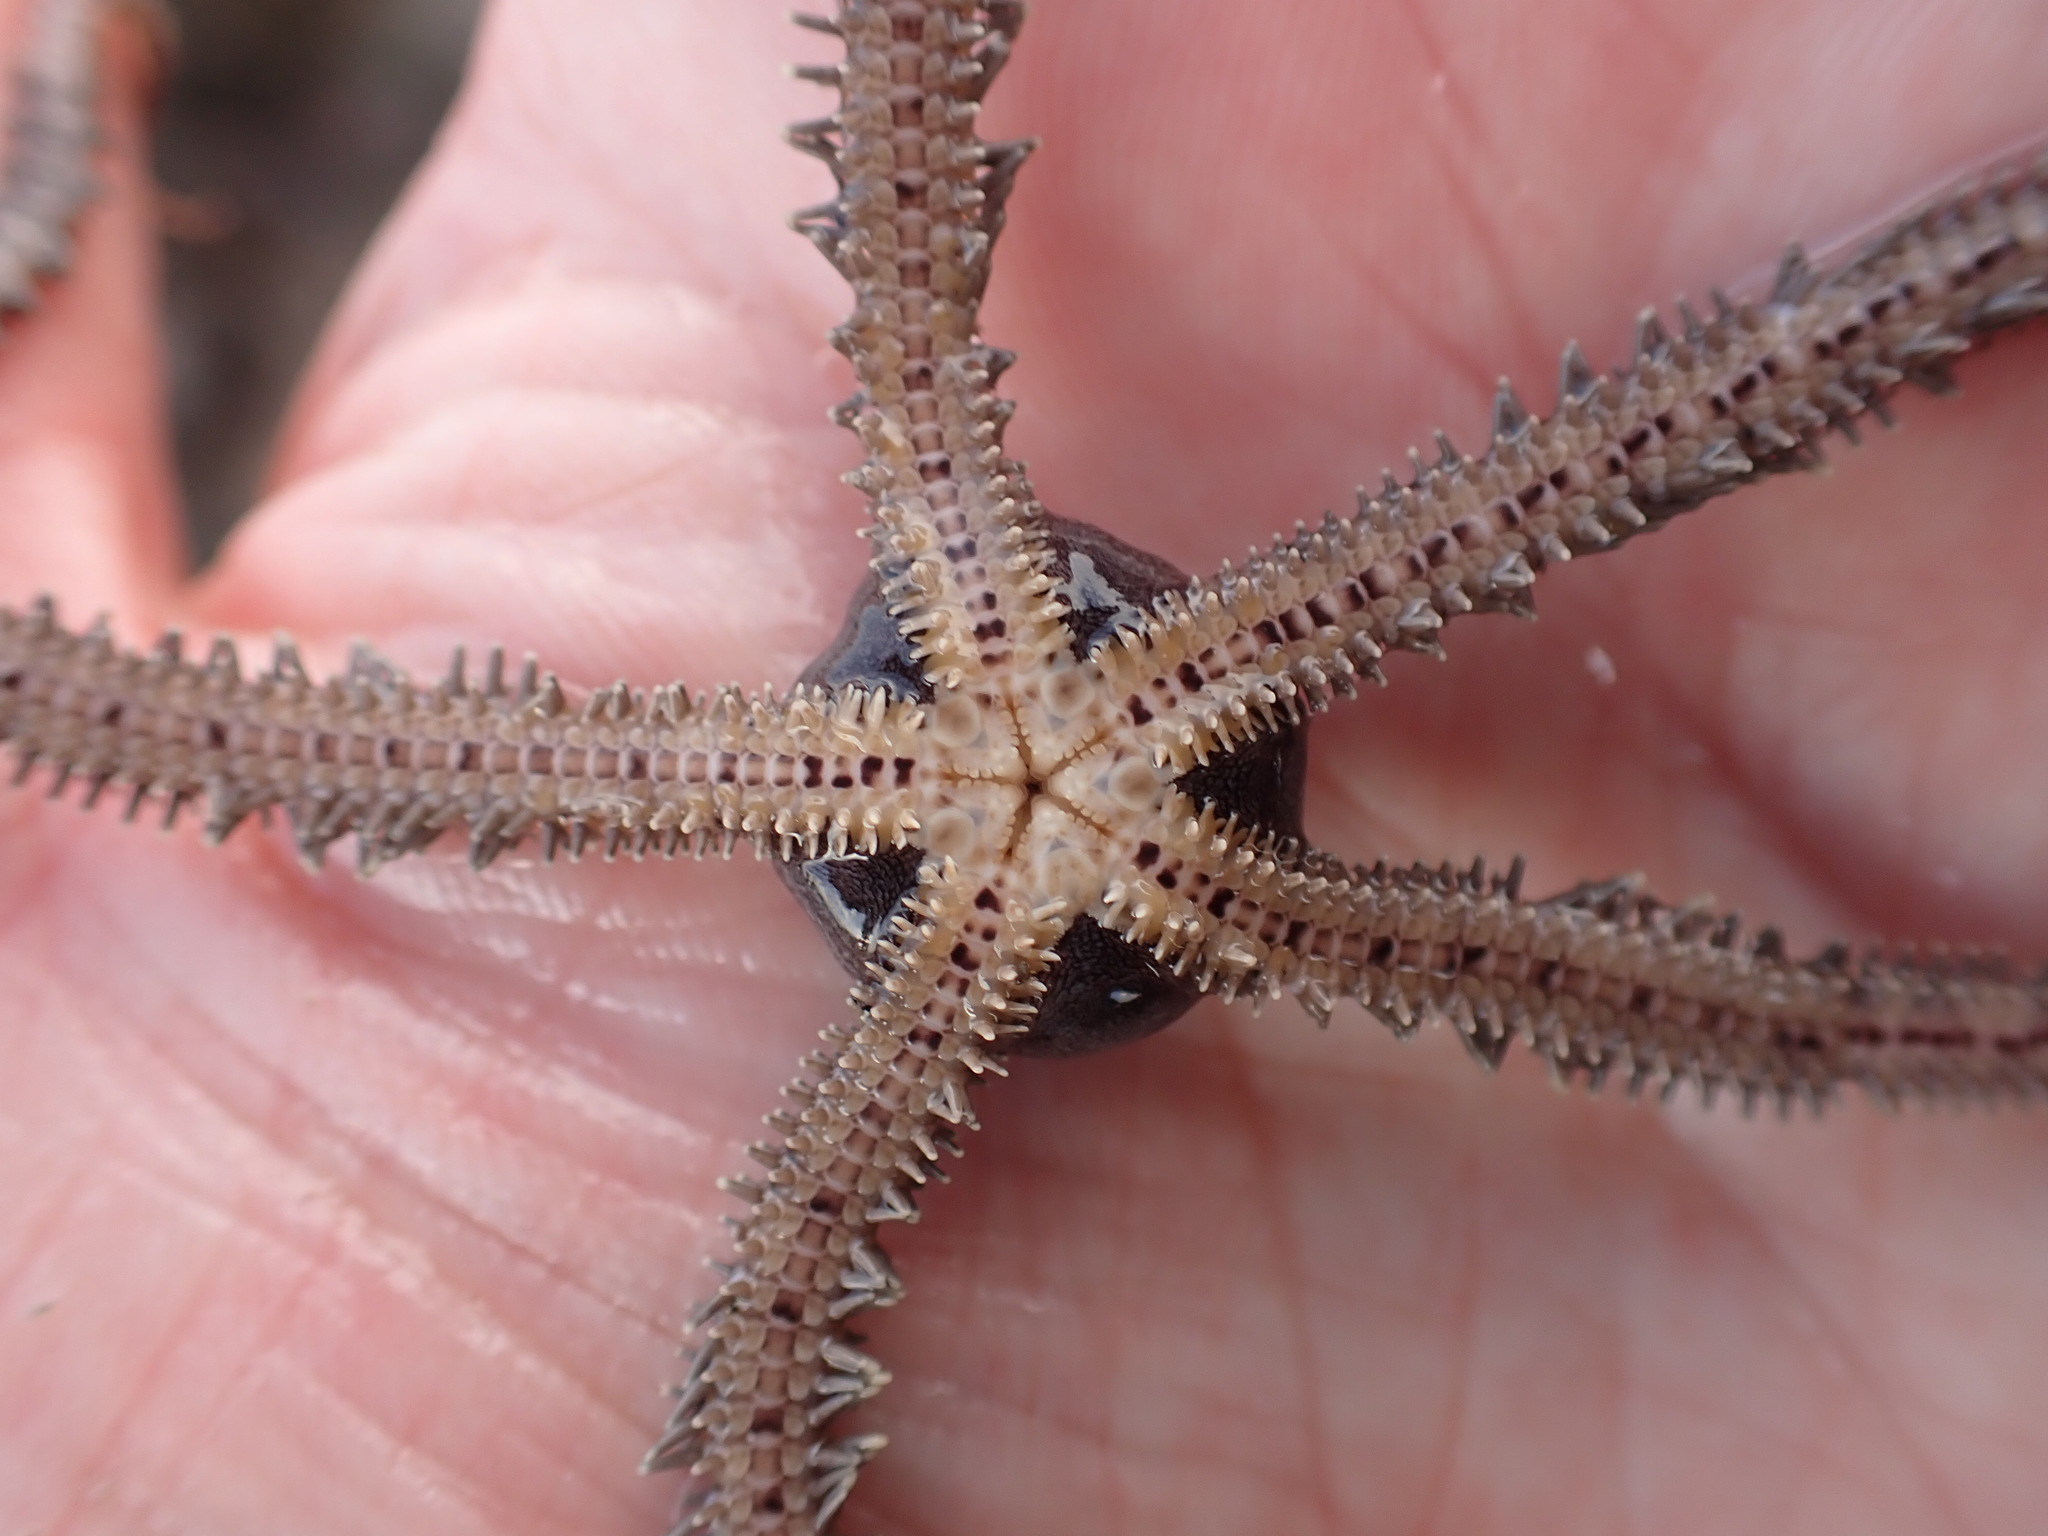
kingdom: Animalia
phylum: Echinodermata
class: Ophiuroidea
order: Amphilepidida
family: Ophionereididae
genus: Ophionereis
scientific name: Ophionereis fasciata
